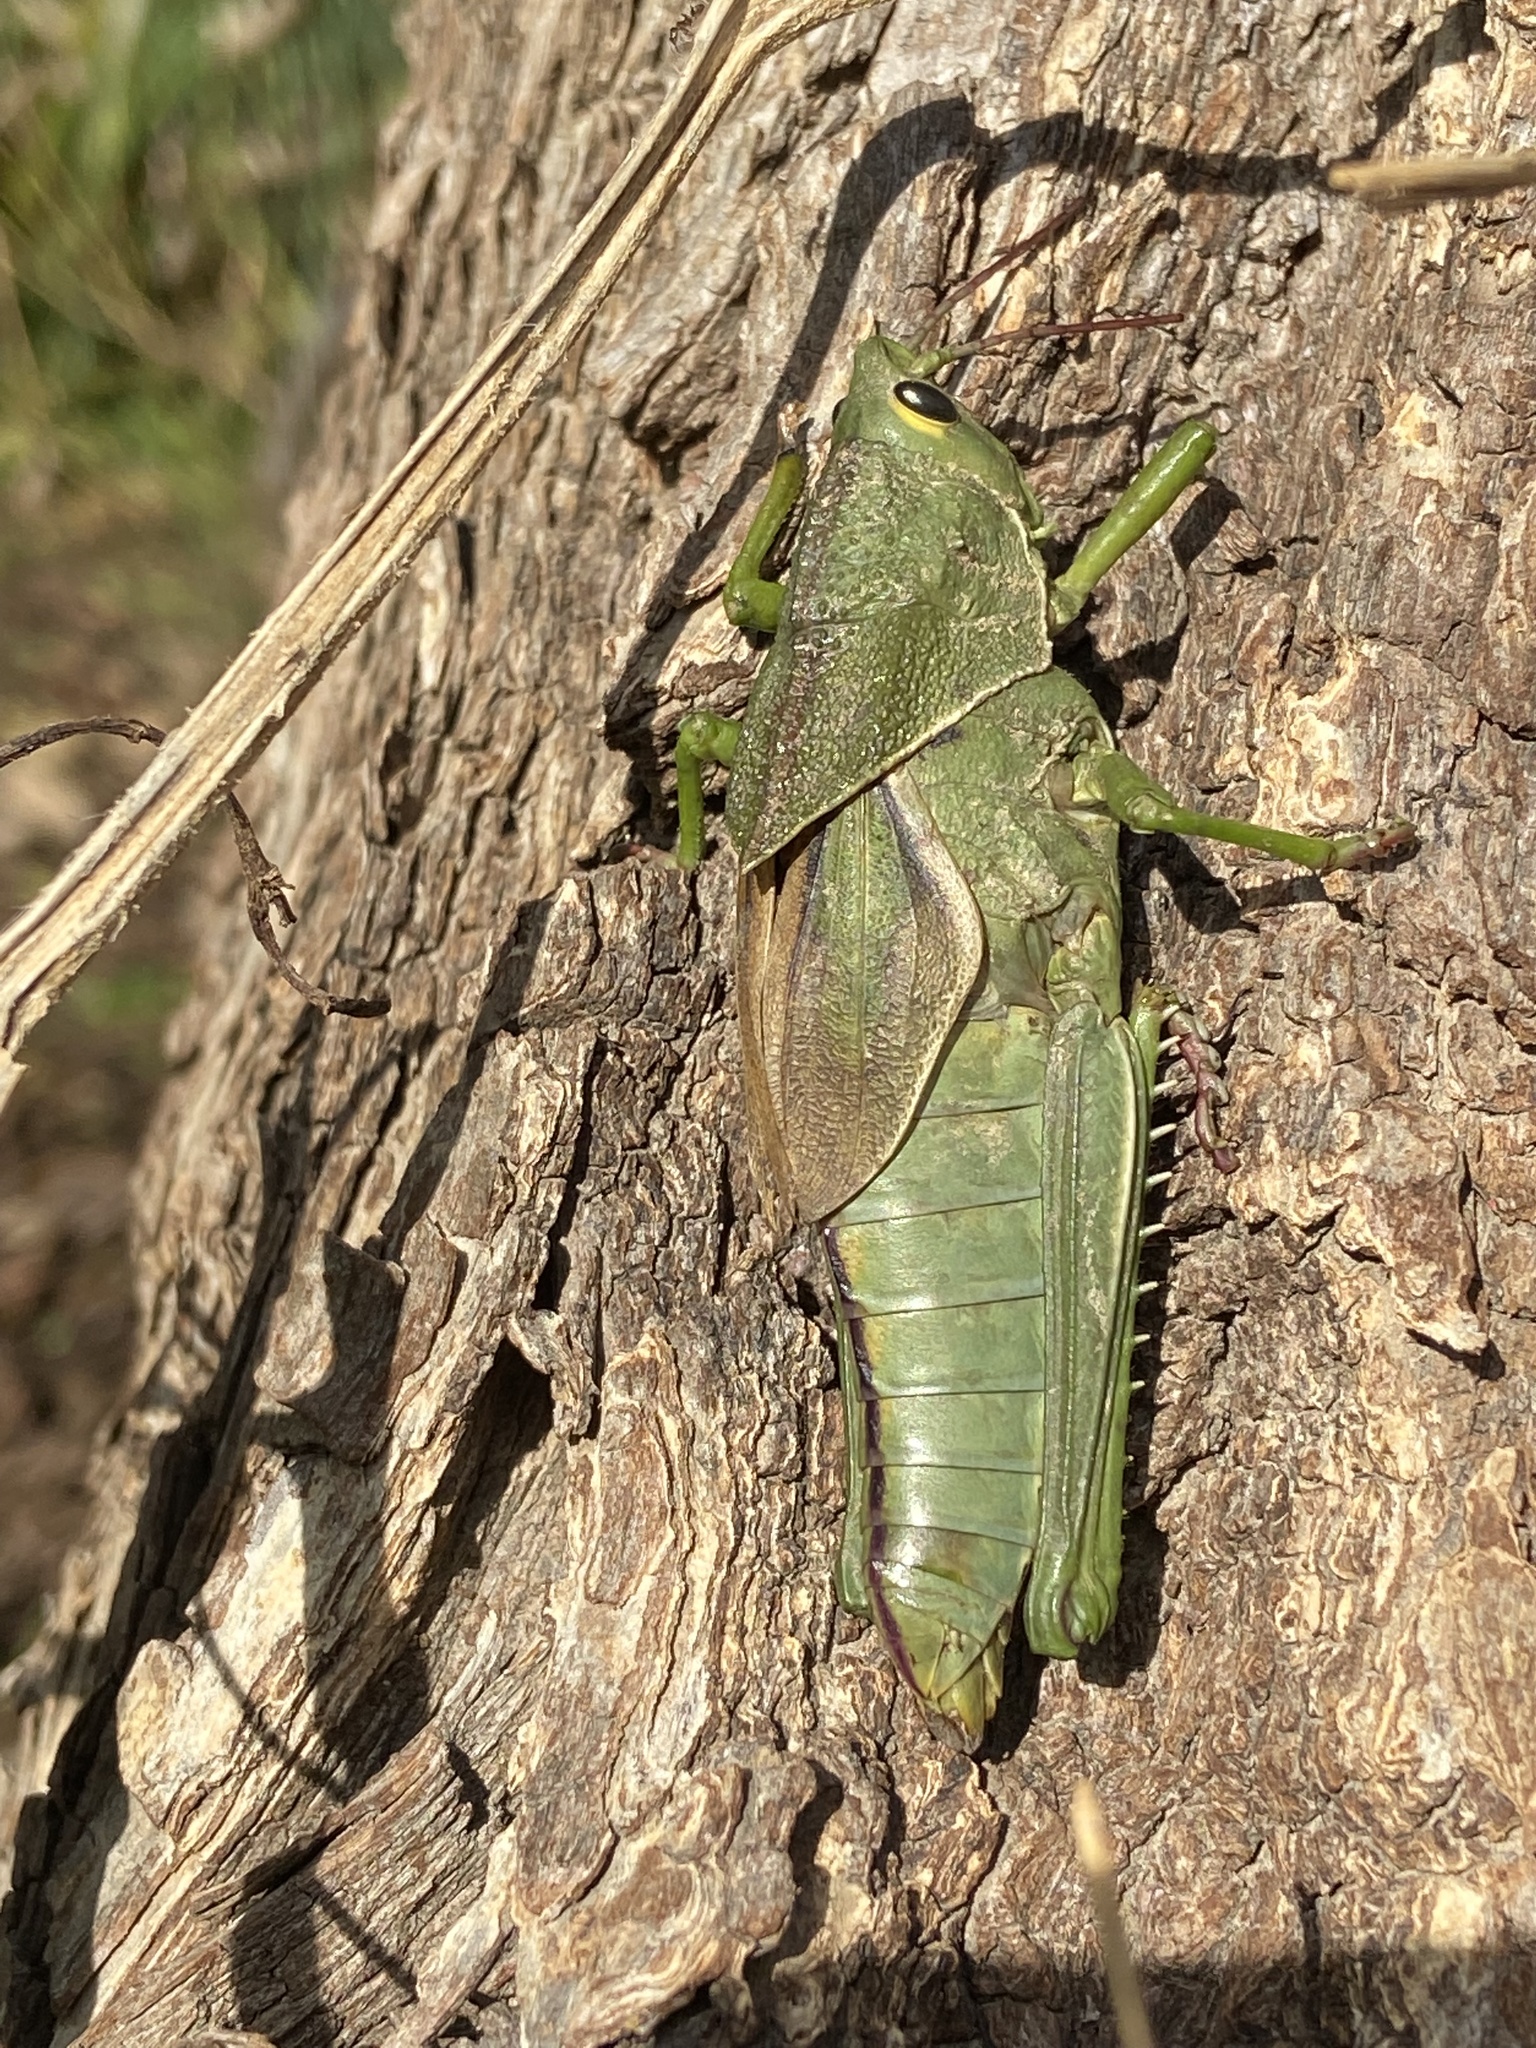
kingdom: Animalia
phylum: Arthropoda
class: Insecta
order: Orthoptera
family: Romaleidae
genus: Staleochlora
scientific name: Staleochlora viridicata
